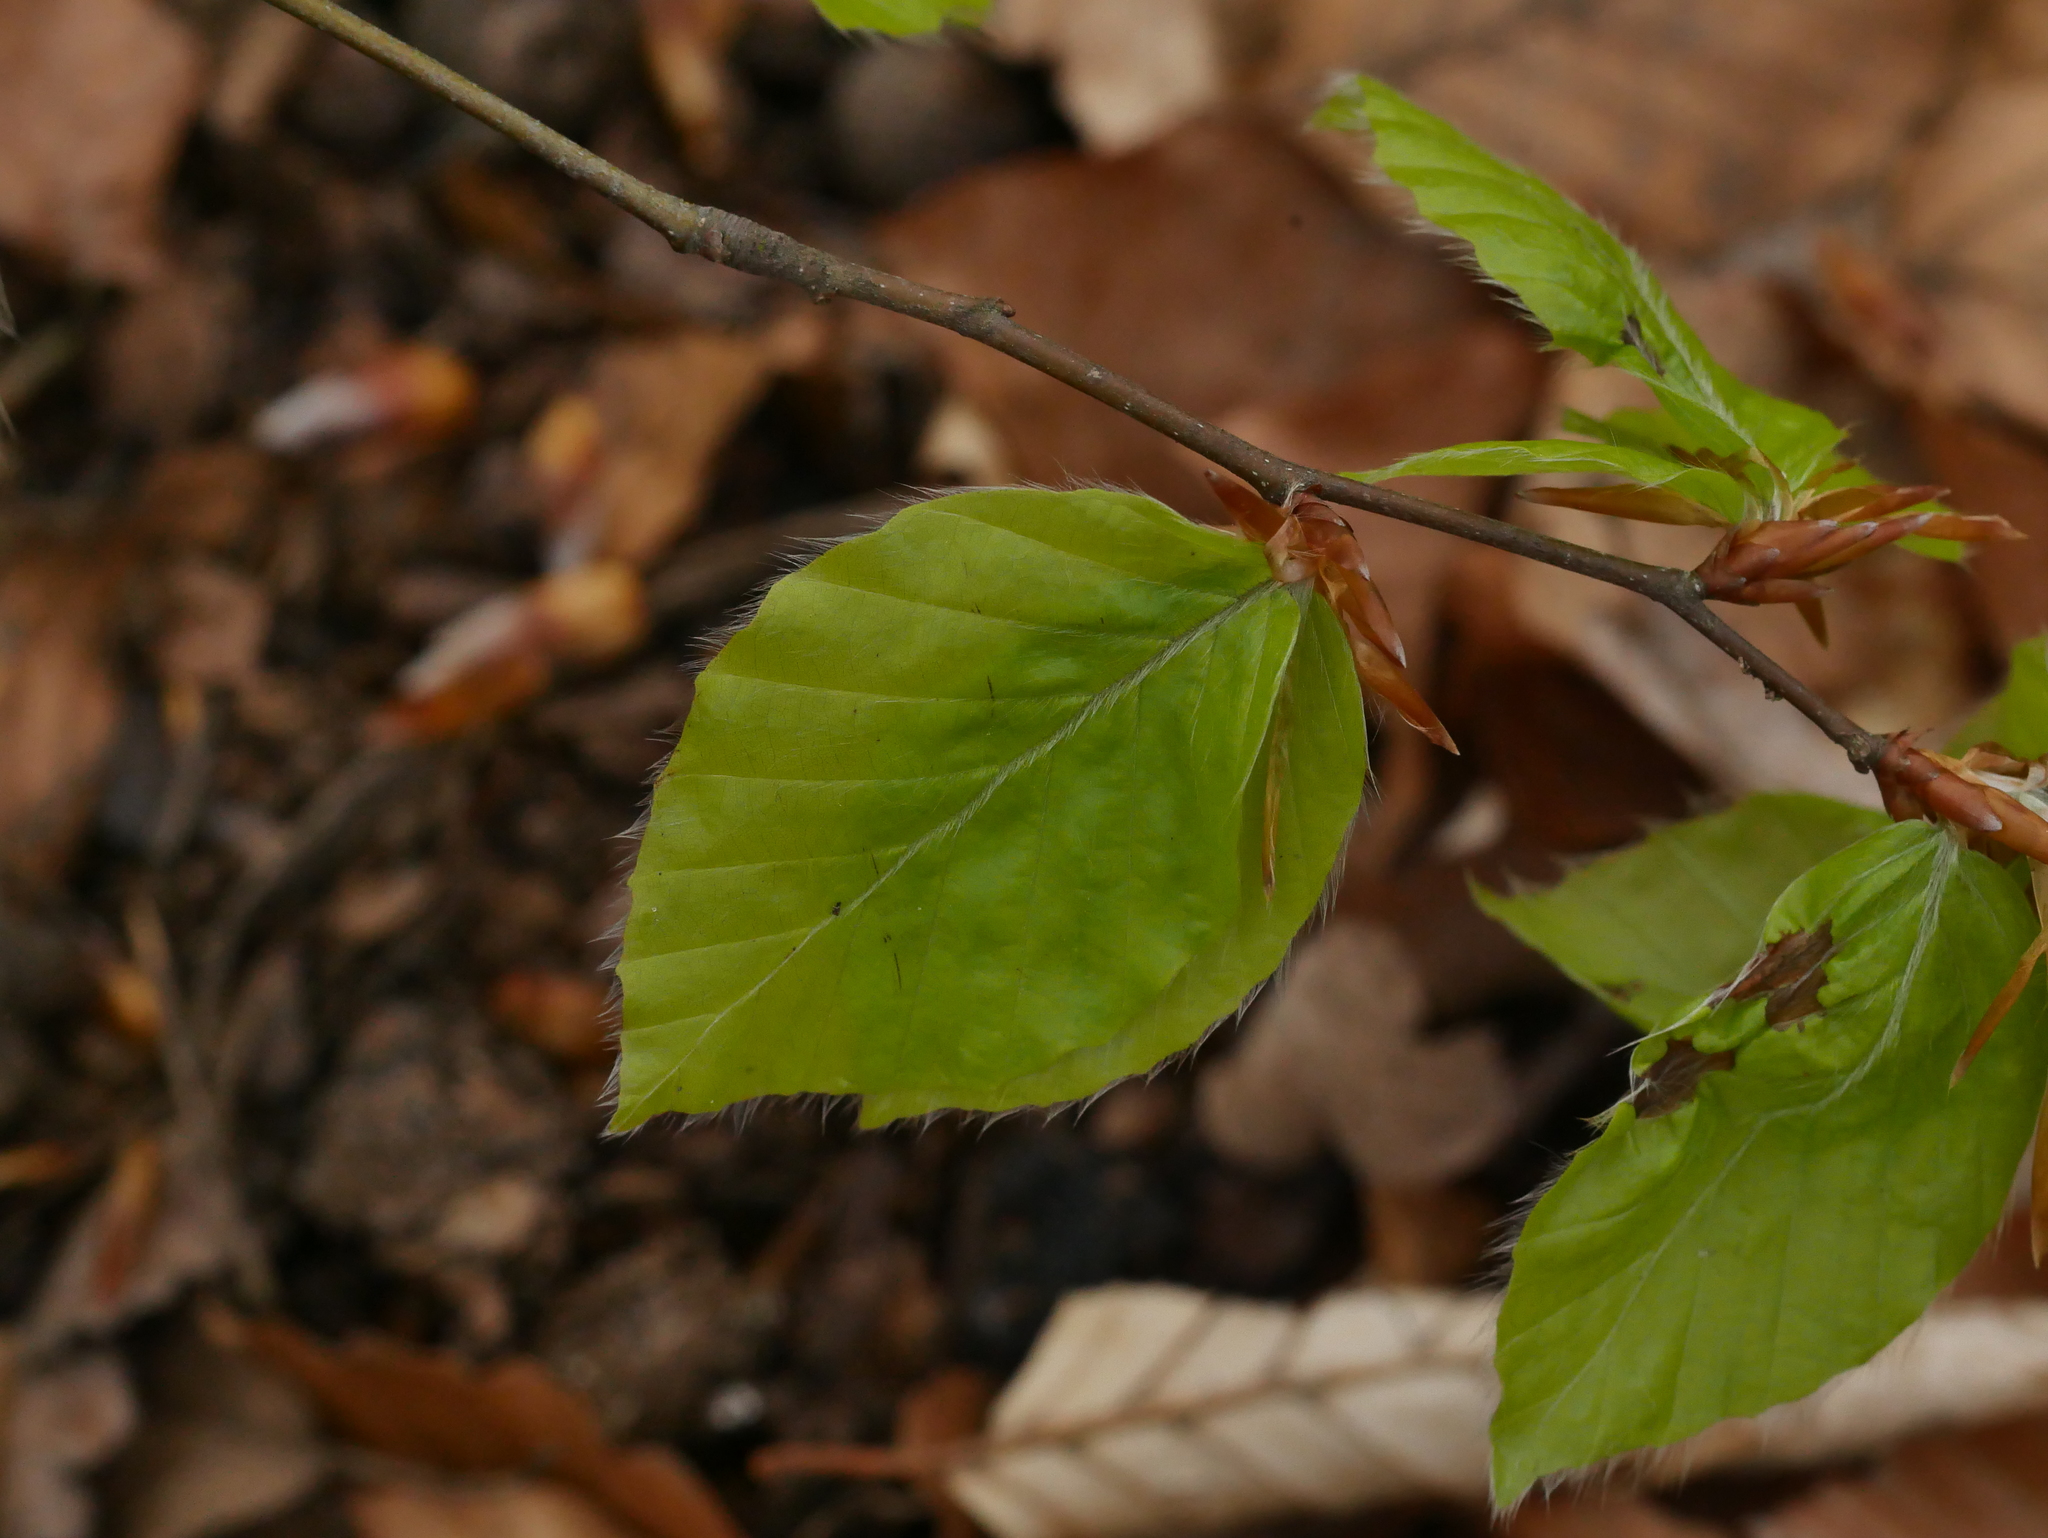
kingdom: Plantae
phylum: Tracheophyta
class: Magnoliopsida
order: Fagales
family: Fagaceae
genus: Fagus
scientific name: Fagus sylvatica
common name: Beech
